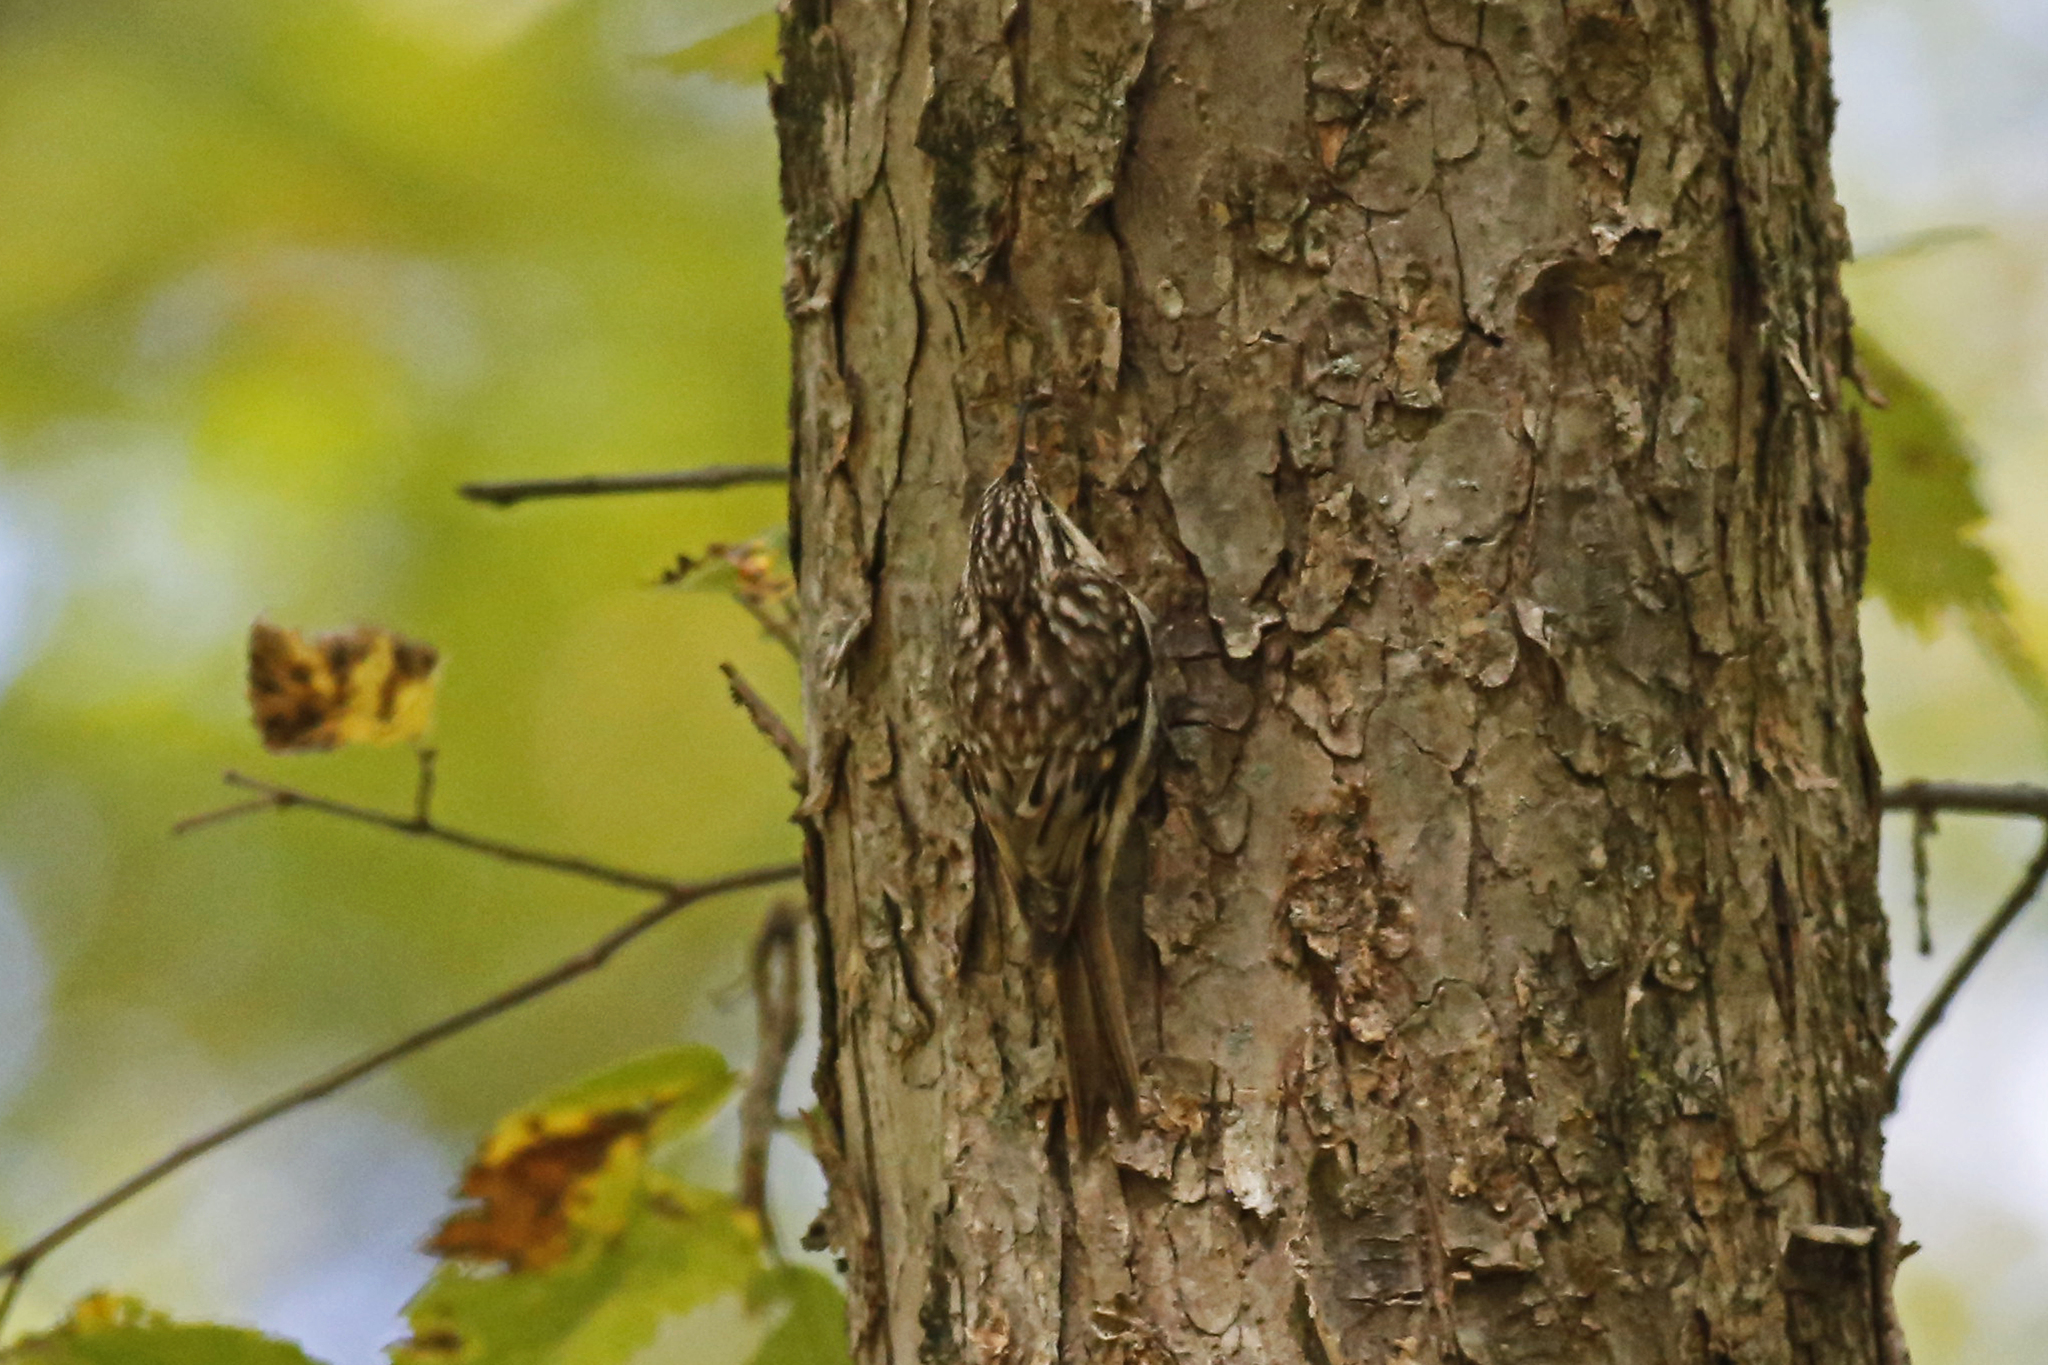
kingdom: Animalia
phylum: Chordata
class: Aves
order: Passeriformes
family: Certhiidae
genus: Certhia
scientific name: Certhia americana
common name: Brown creeper
